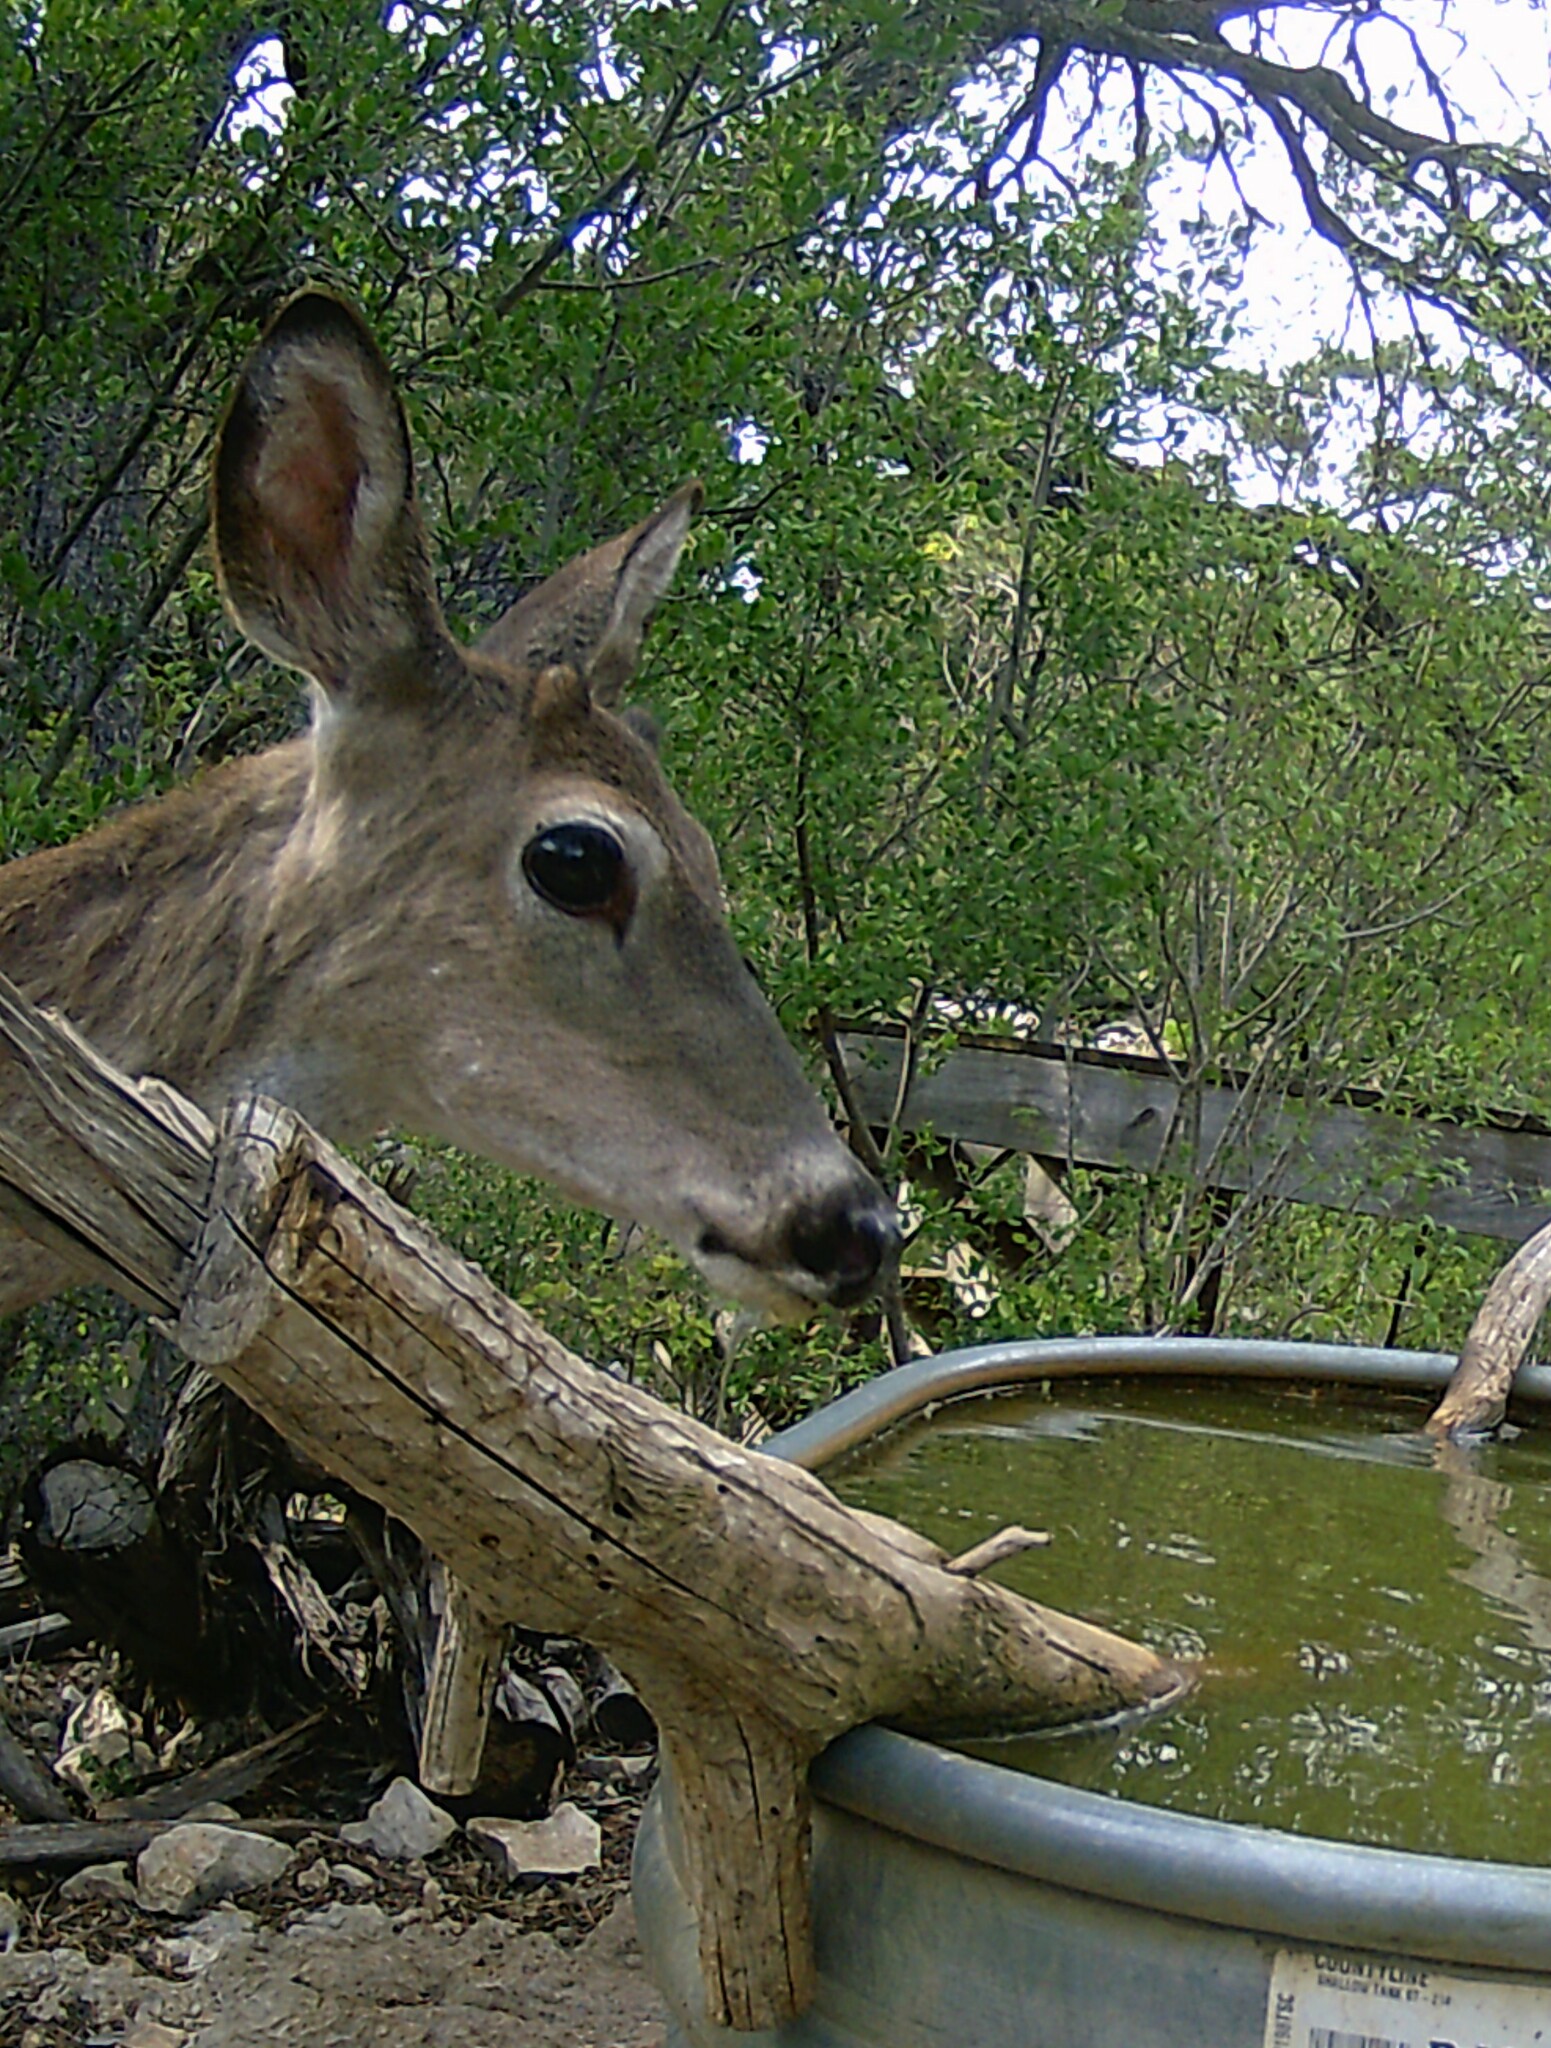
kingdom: Animalia
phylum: Chordata
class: Mammalia
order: Artiodactyla
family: Cervidae
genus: Odocoileus
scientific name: Odocoileus virginianus
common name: White-tailed deer
